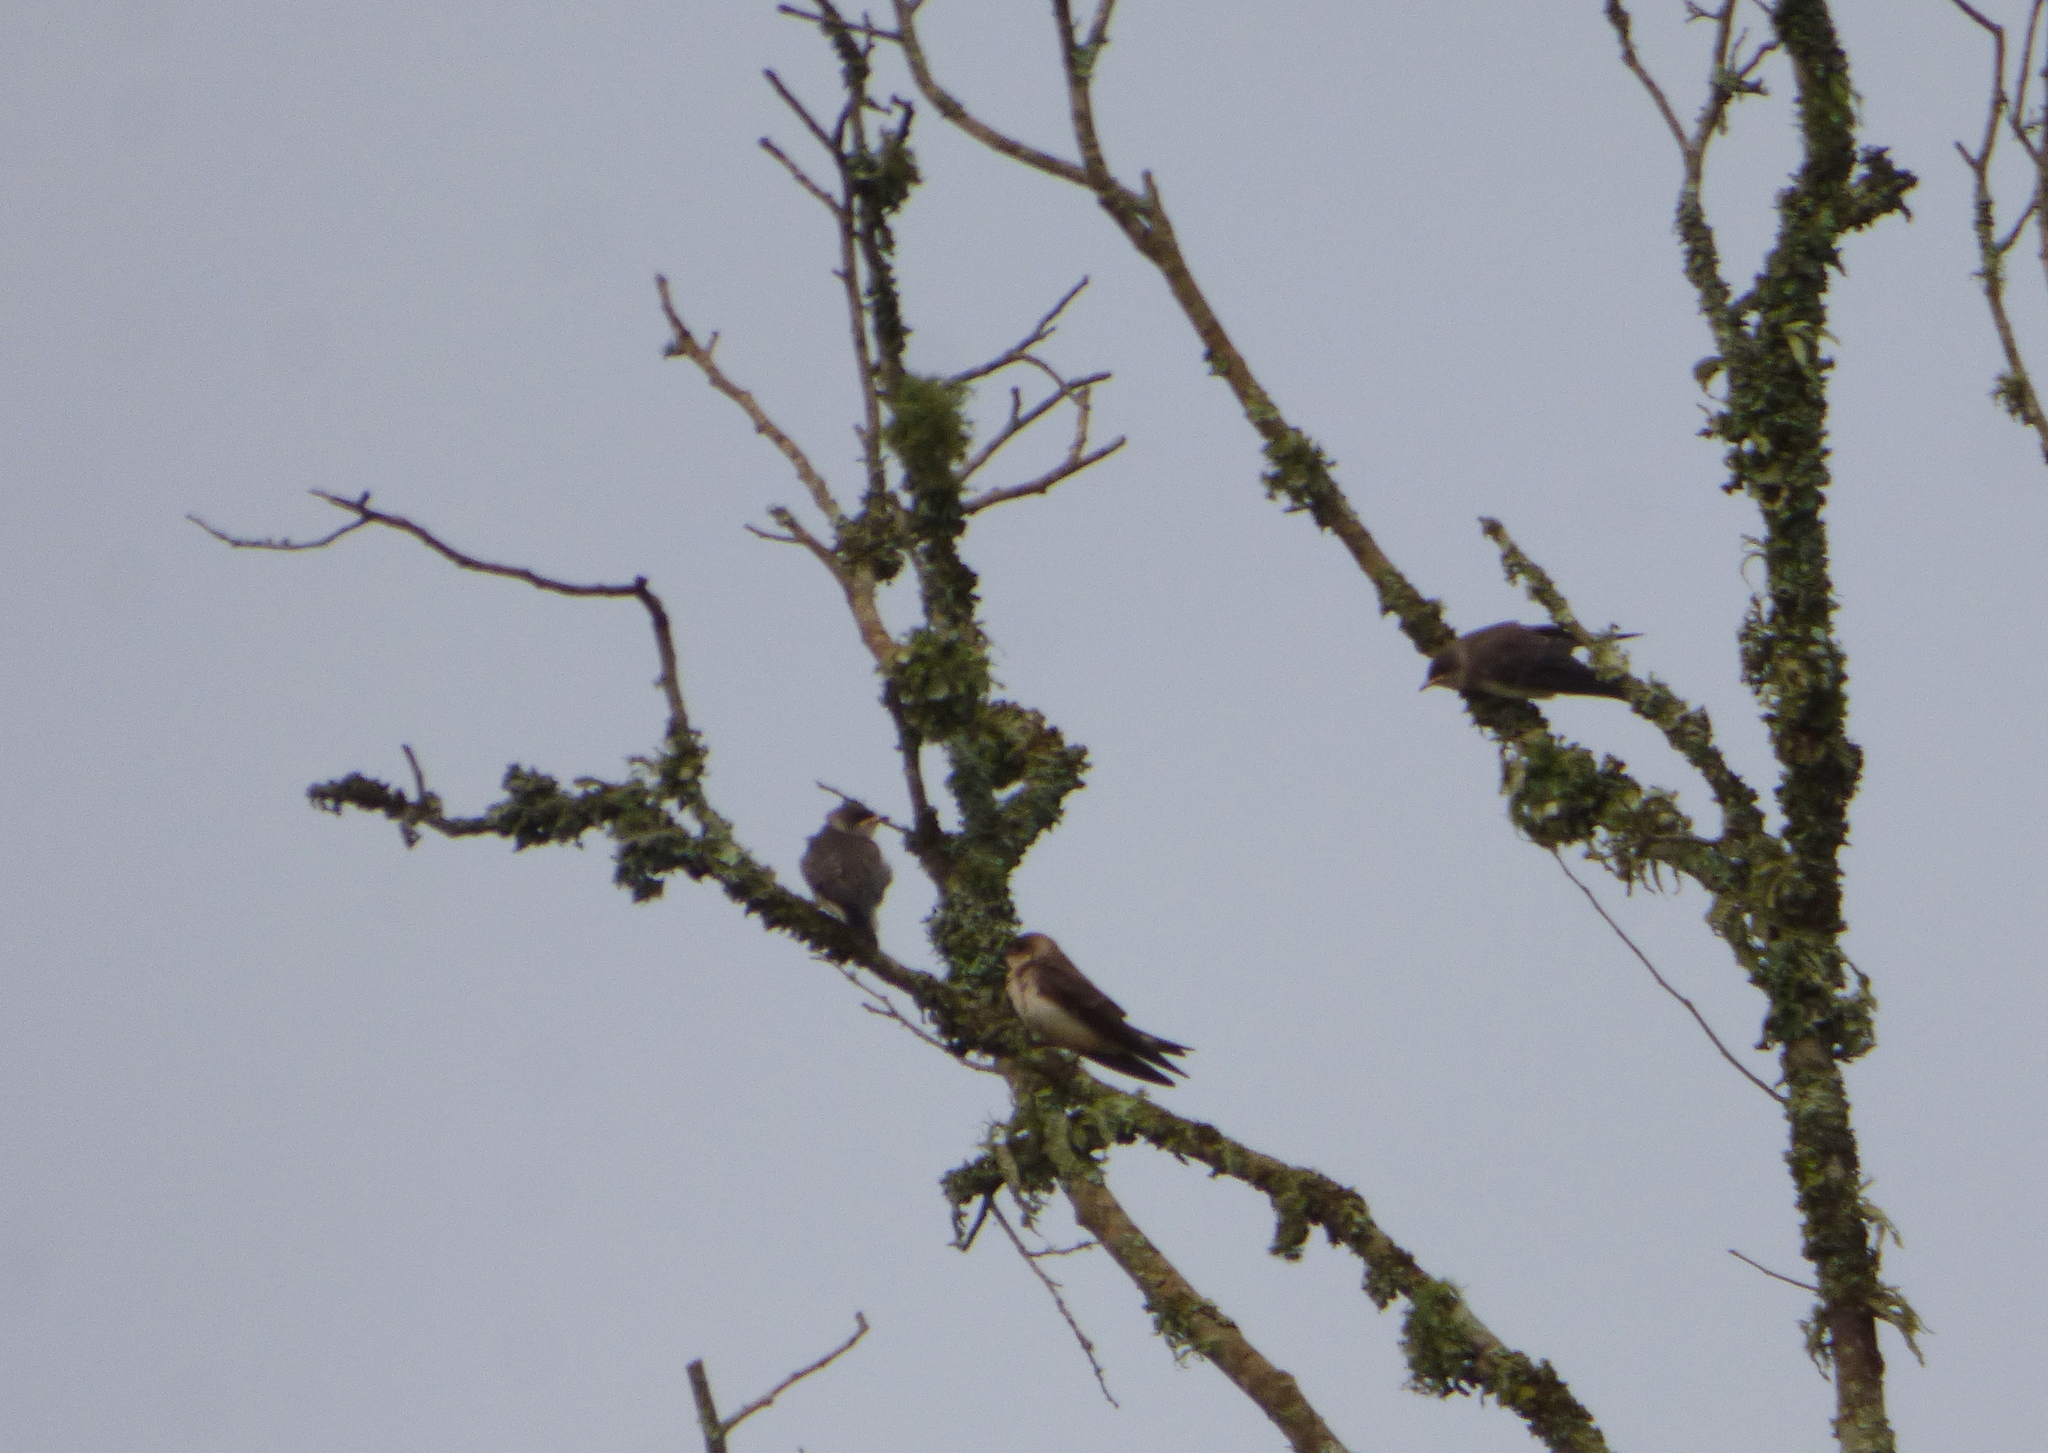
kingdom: Animalia
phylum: Chordata
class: Aves
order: Passeriformes
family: Hirundinidae
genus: Progne
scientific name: Progne tapera
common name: Brown-chested martin
